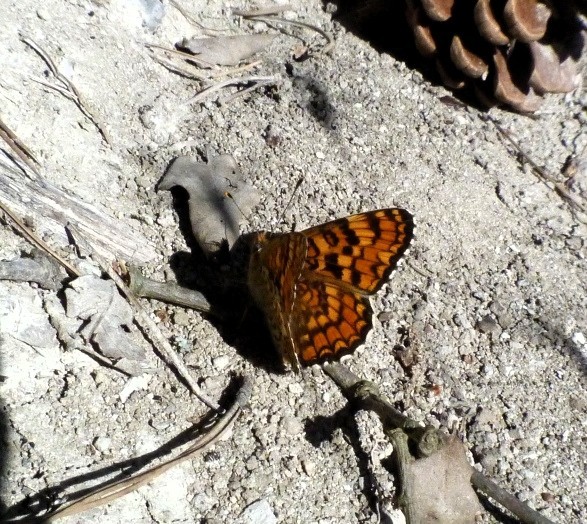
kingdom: Animalia
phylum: Arthropoda
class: Insecta
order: Lepidoptera
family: Nymphalidae
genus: Melitaea
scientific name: Melitaea phoebe
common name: Knapweed fritillary
